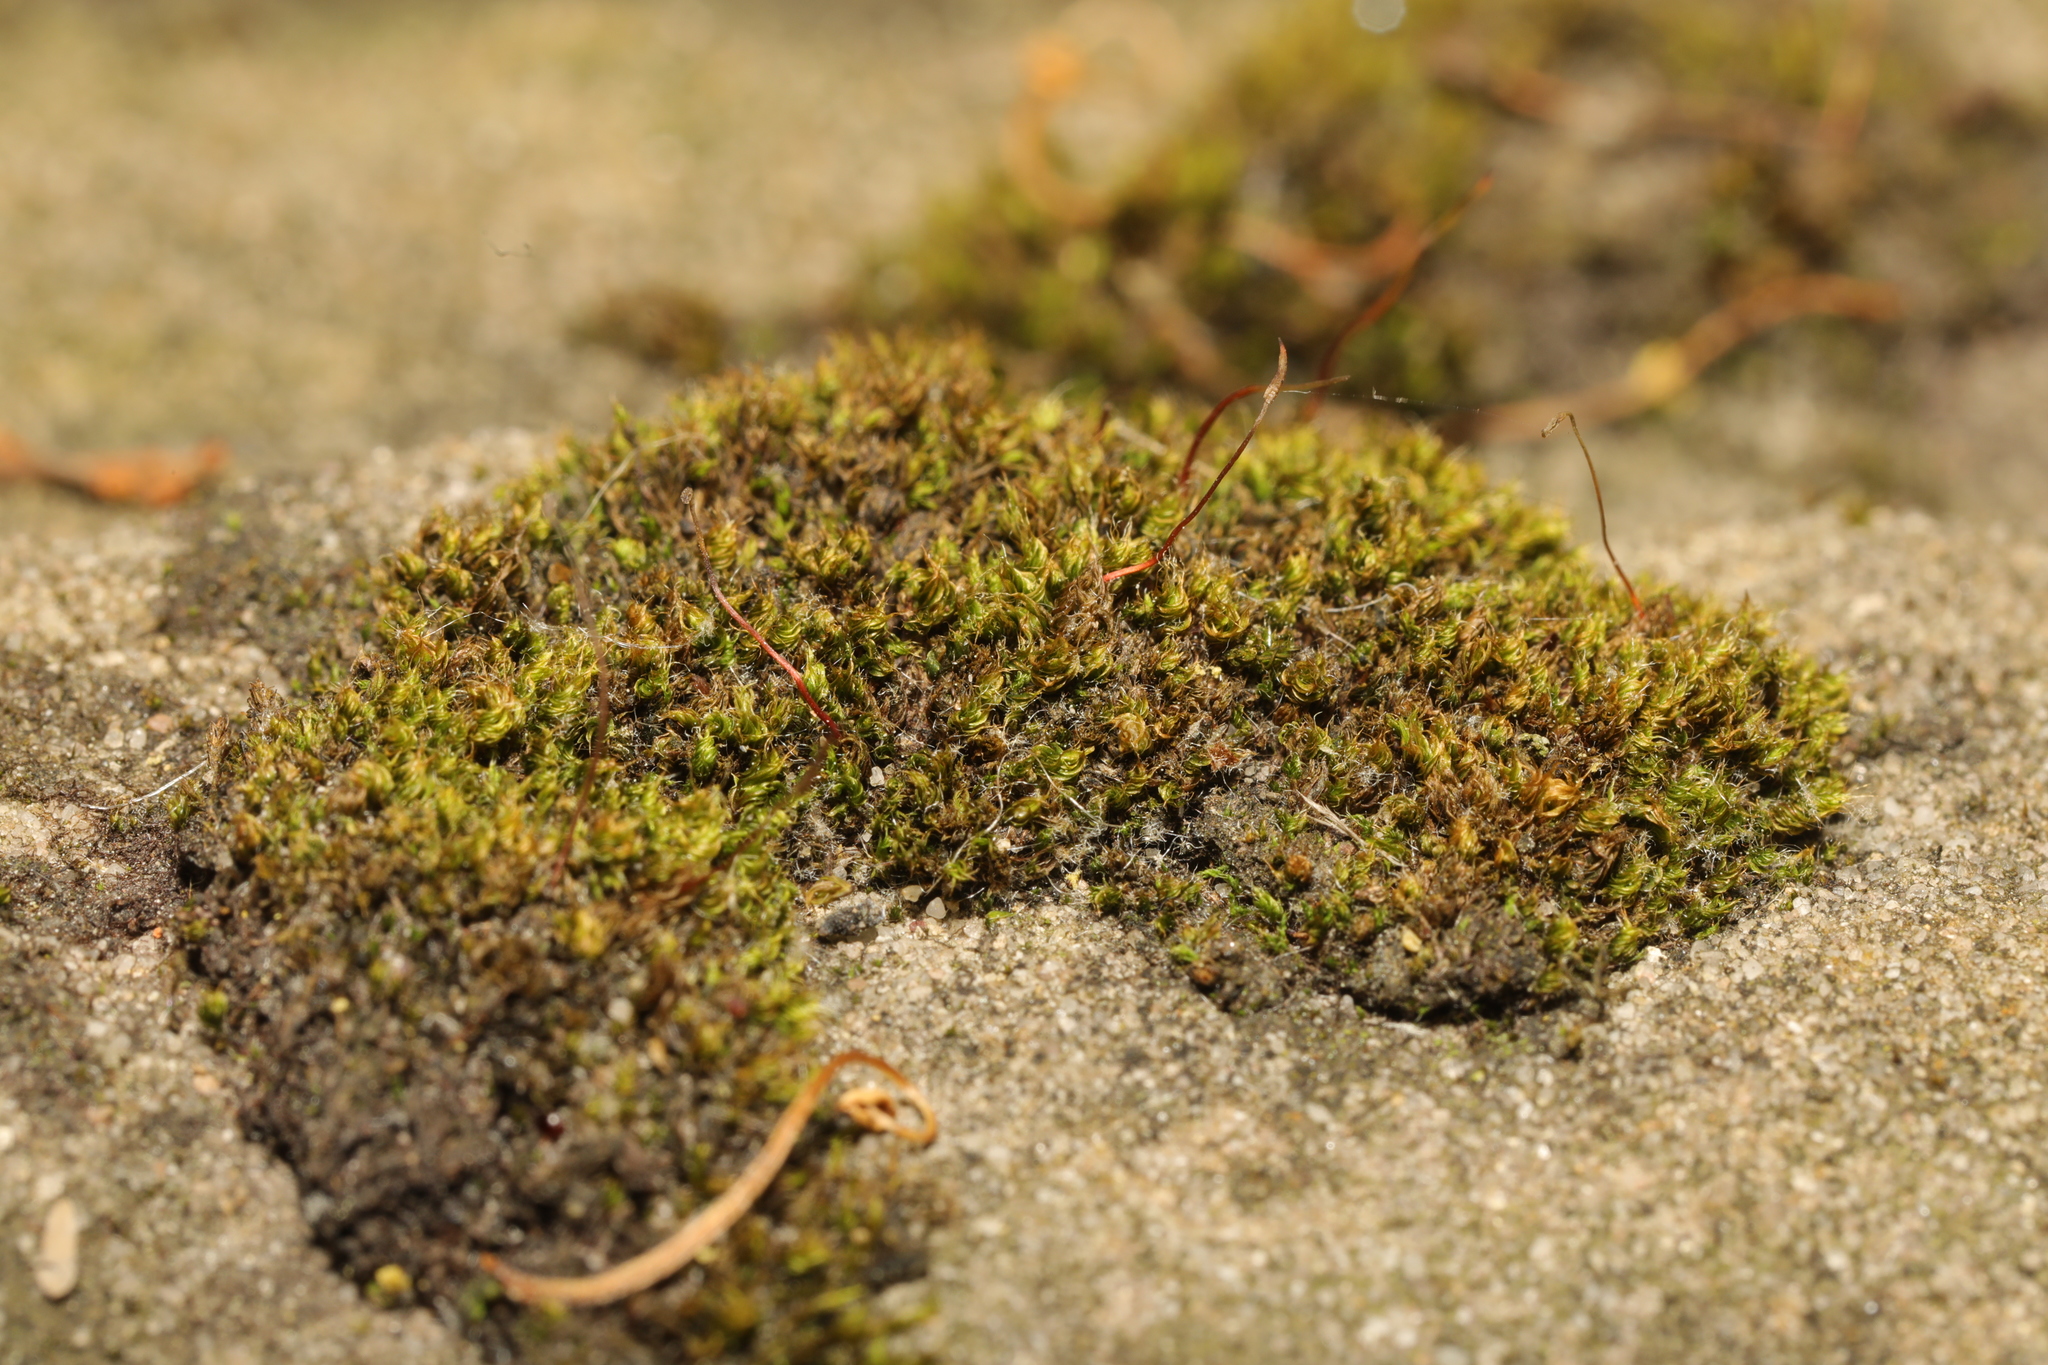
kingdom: Plantae
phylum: Bryophyta
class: Bryopsida
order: Pottiales
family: Pottiaceae
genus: Tortula
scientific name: Tortula muralis
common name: Wall screw-moss
